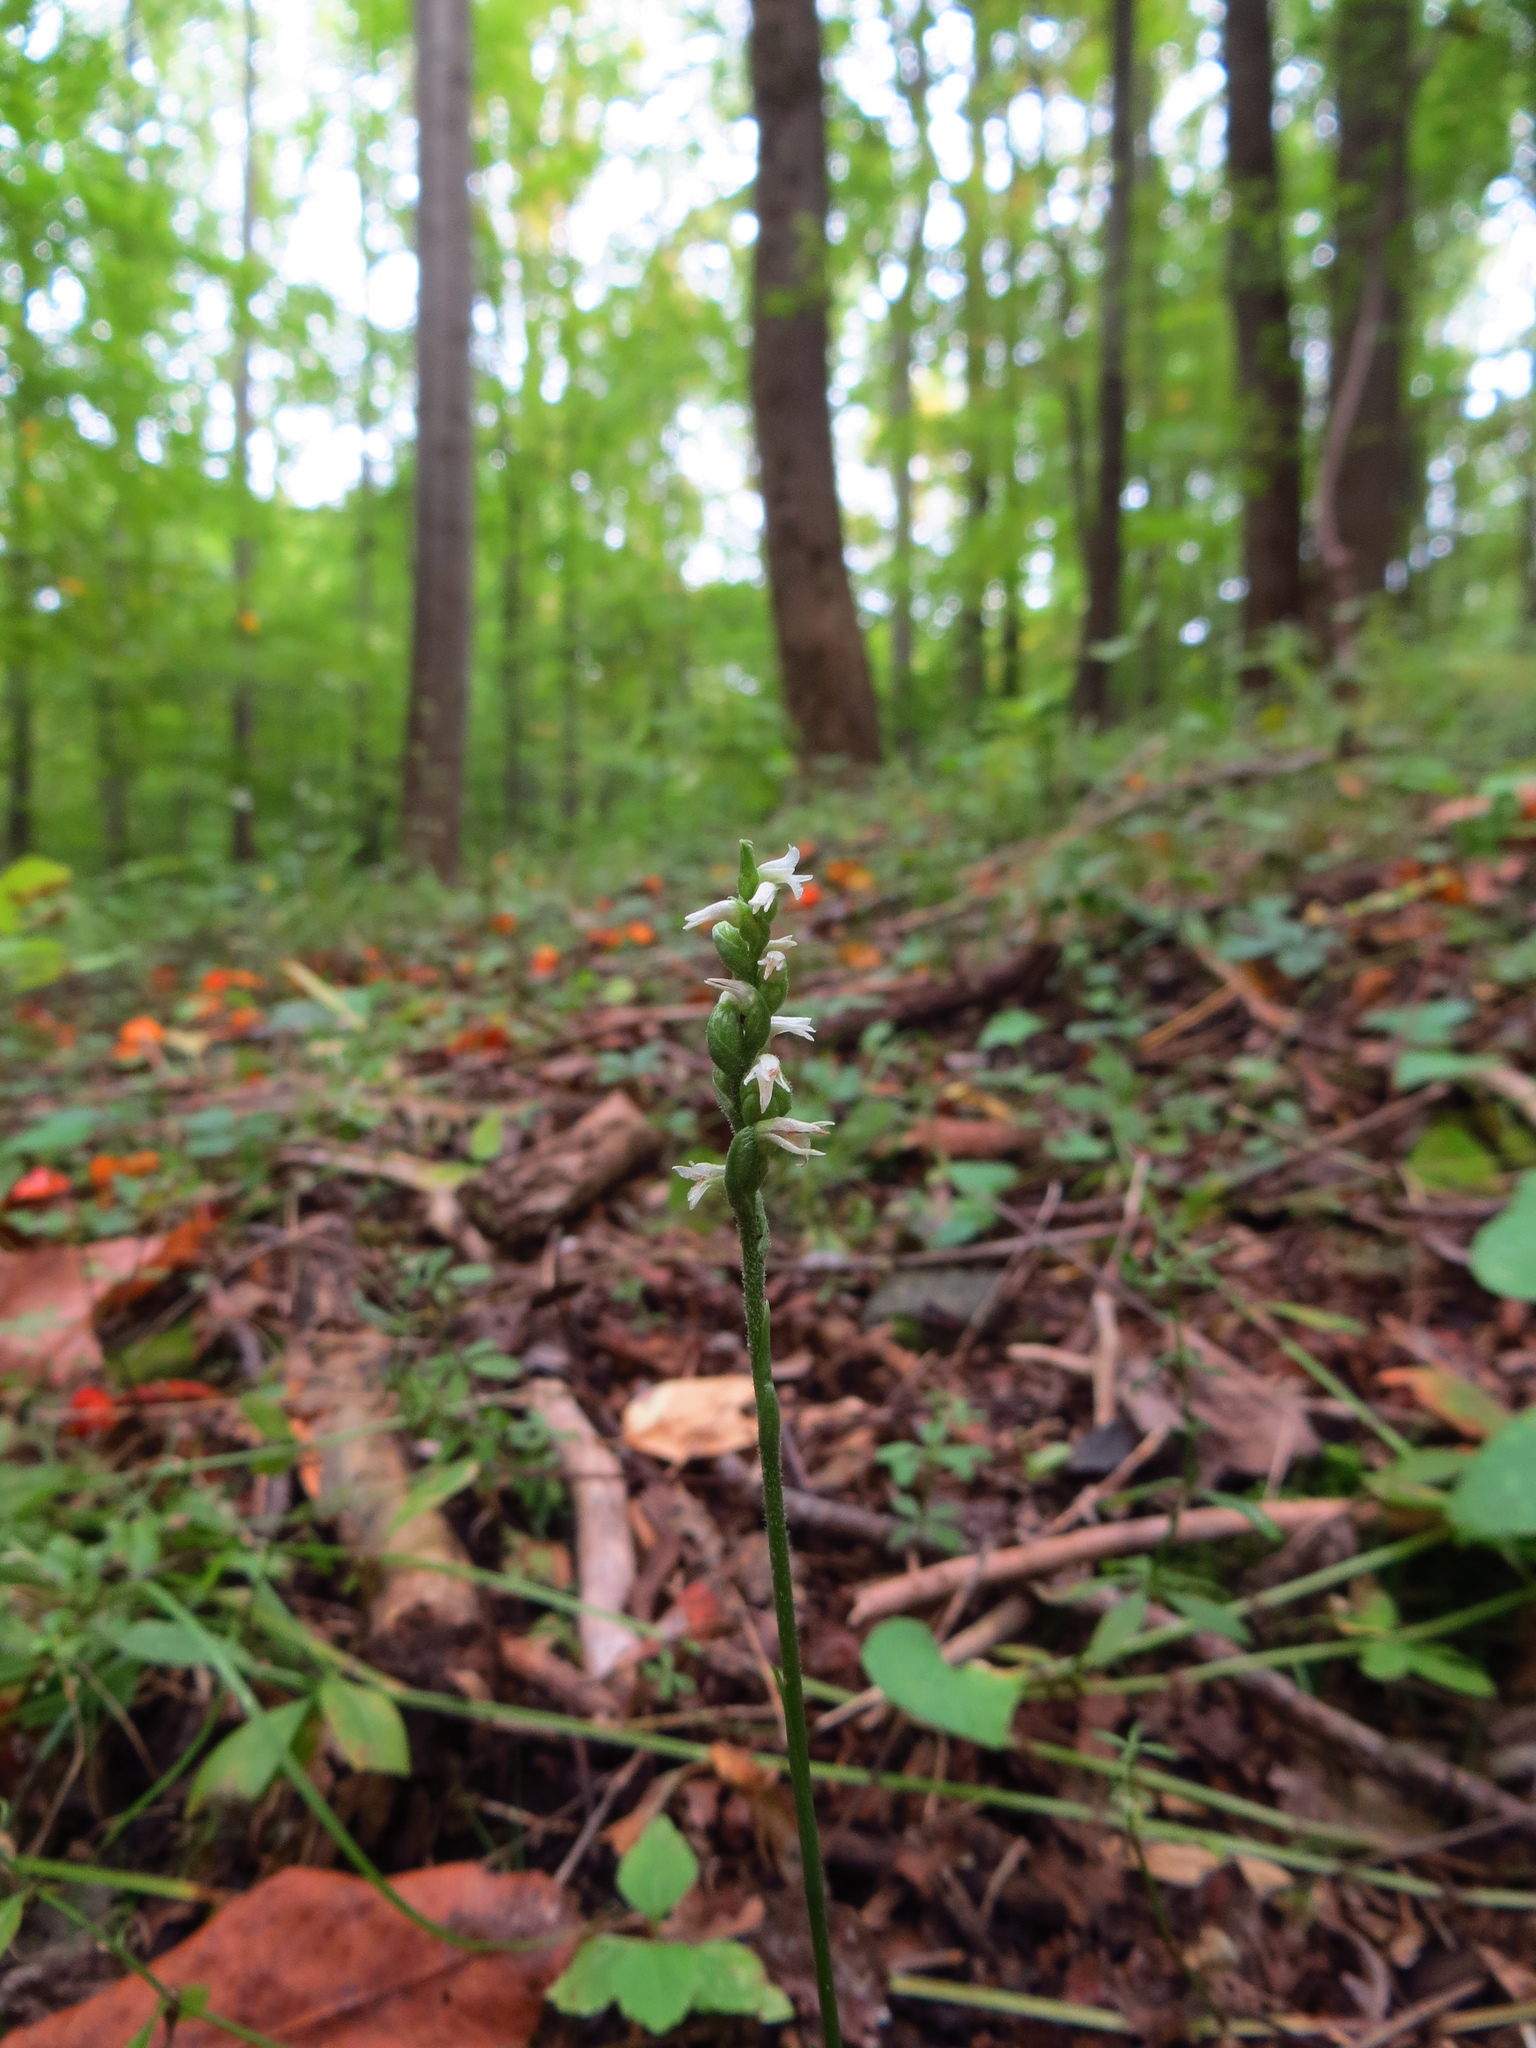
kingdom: Plantae
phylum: Tracheophyta
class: Liliopsida
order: Asparagales
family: Orchidaceae
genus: Spiranthes
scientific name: Spiranthes ovalis
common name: October ladies'-tresses
